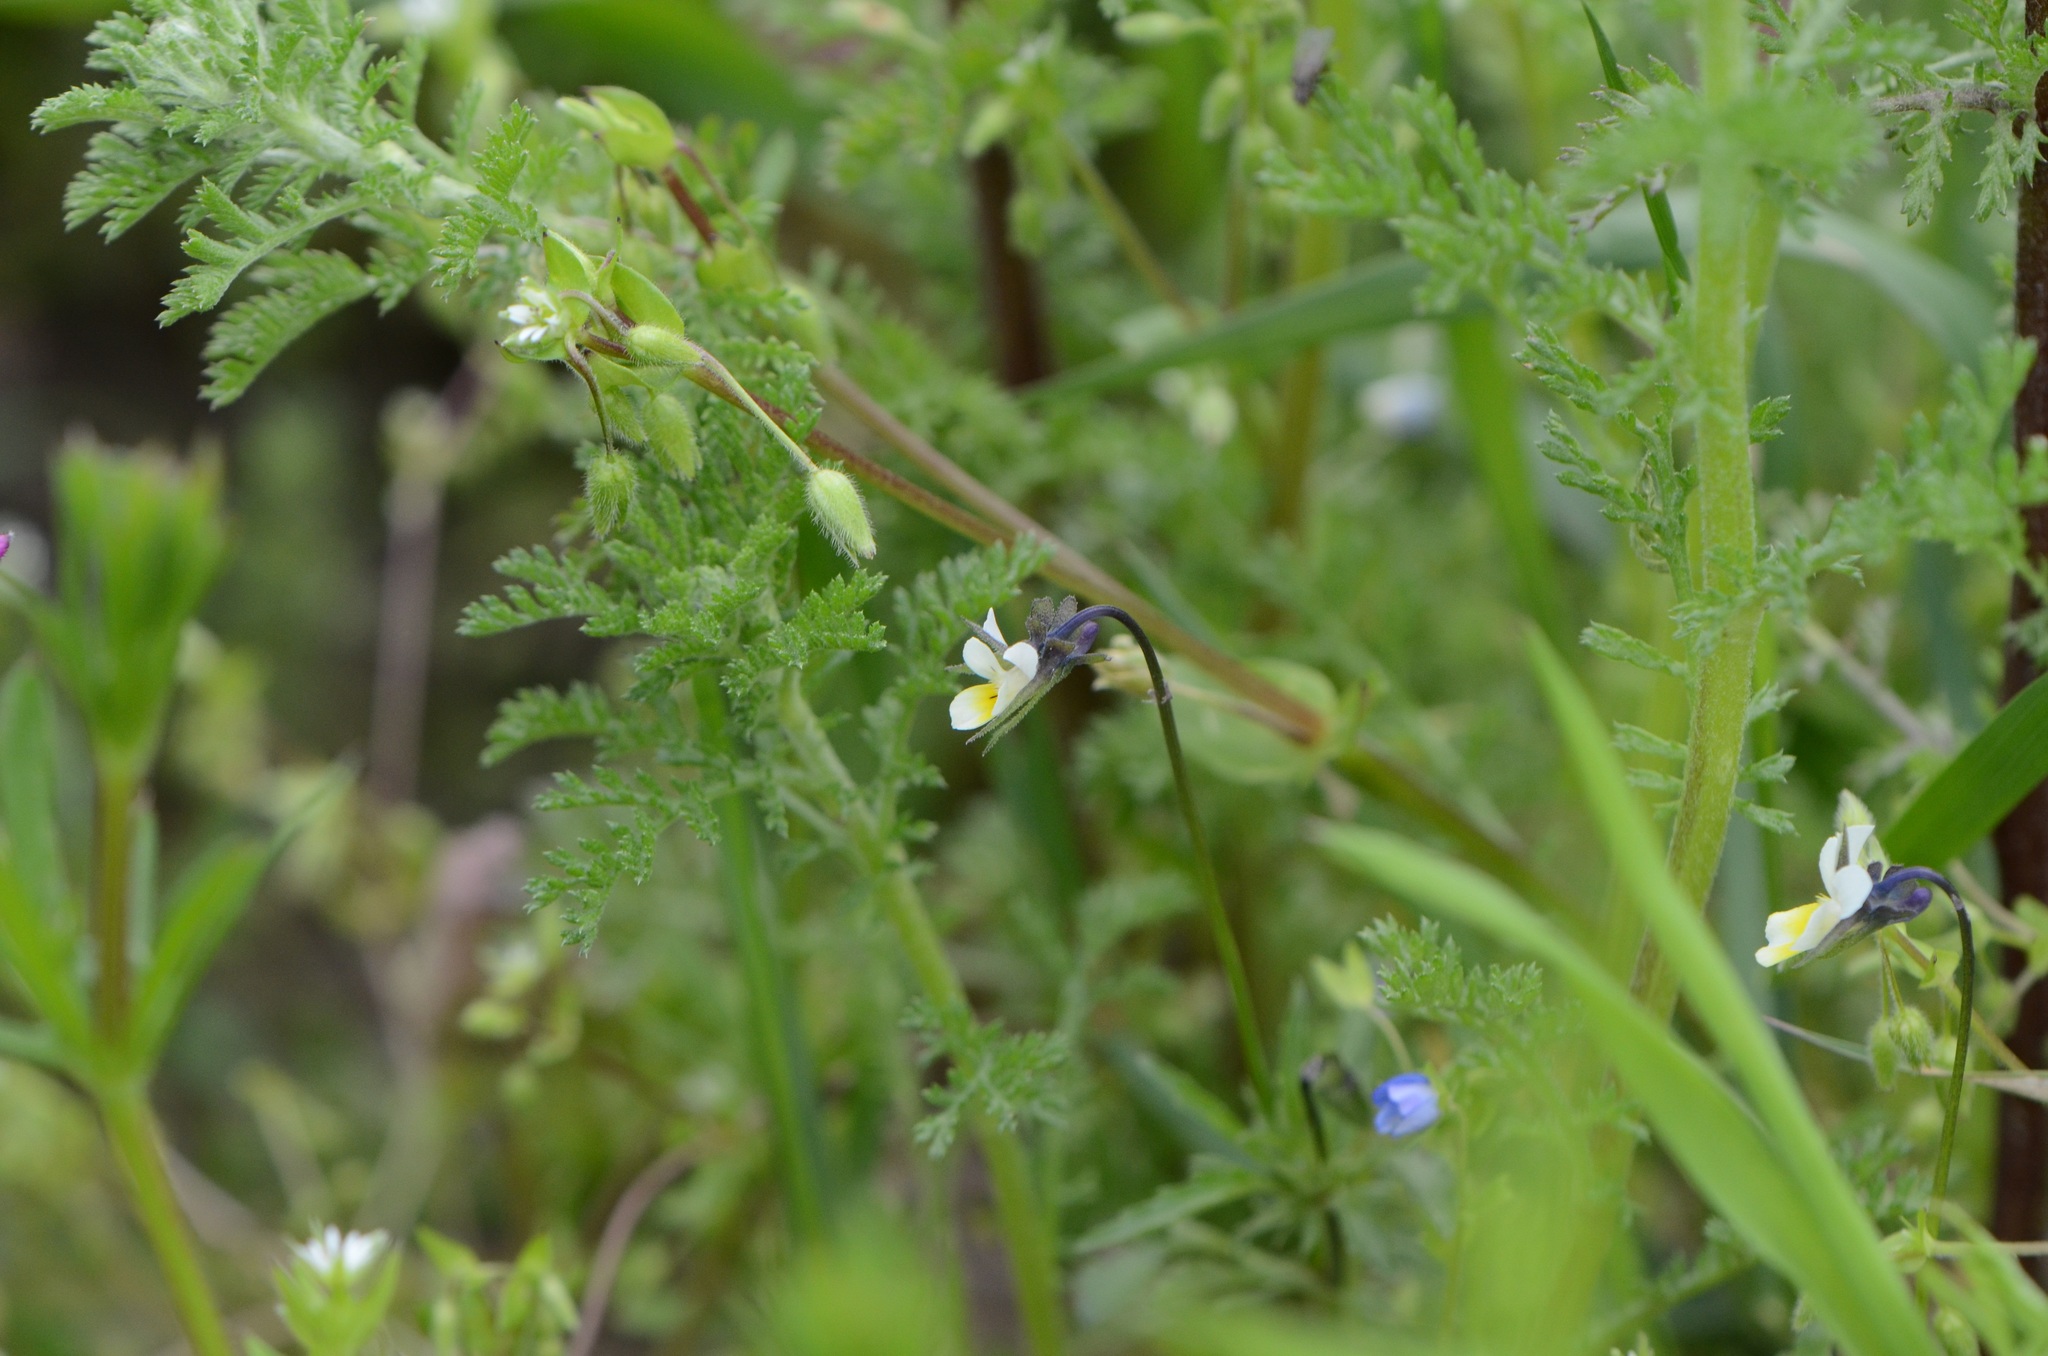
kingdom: Plantae
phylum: Tracheophyta
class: Magnoliopsida
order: Malpighiales
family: Violaceae
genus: Viola
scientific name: Viola arvensis
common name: Field pansy
